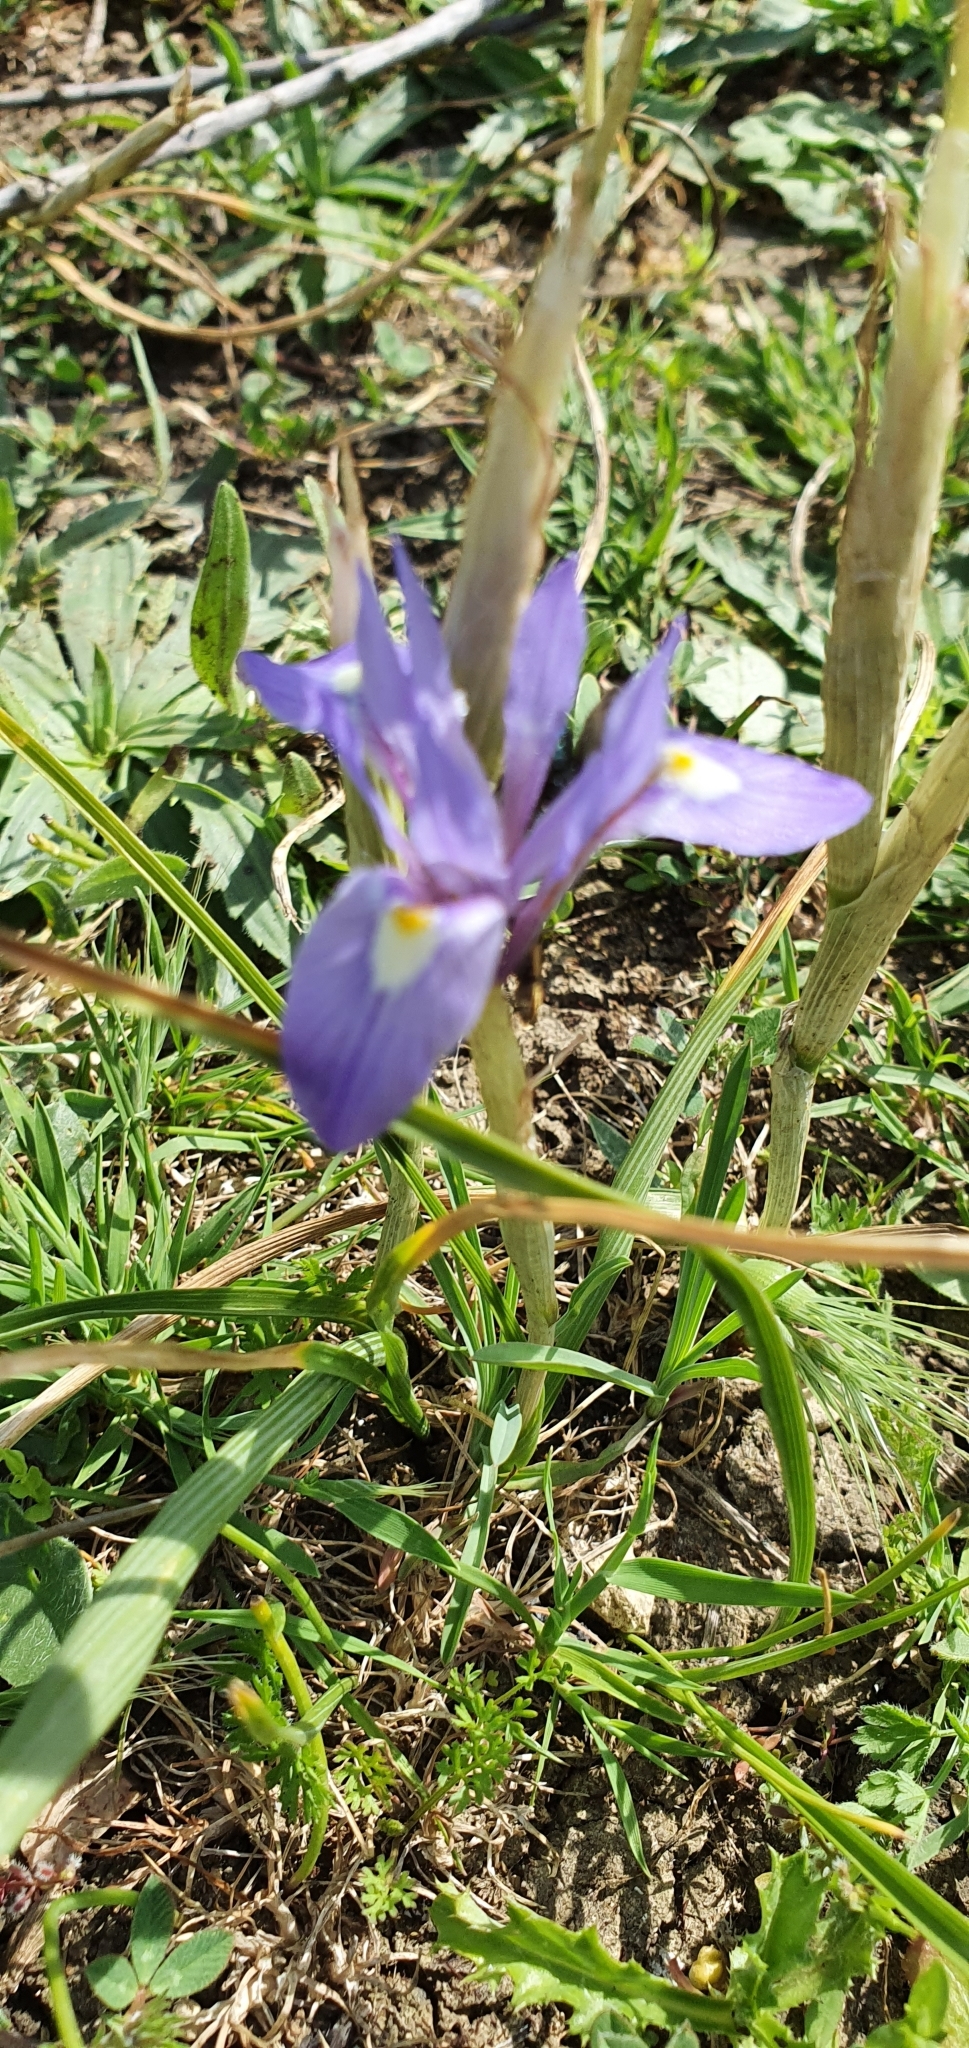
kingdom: Plantae
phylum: Tracheophyta
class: Liliopsida
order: Asparagales
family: Iridaceae
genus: Moraea
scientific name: Moraea sisyrinchium
